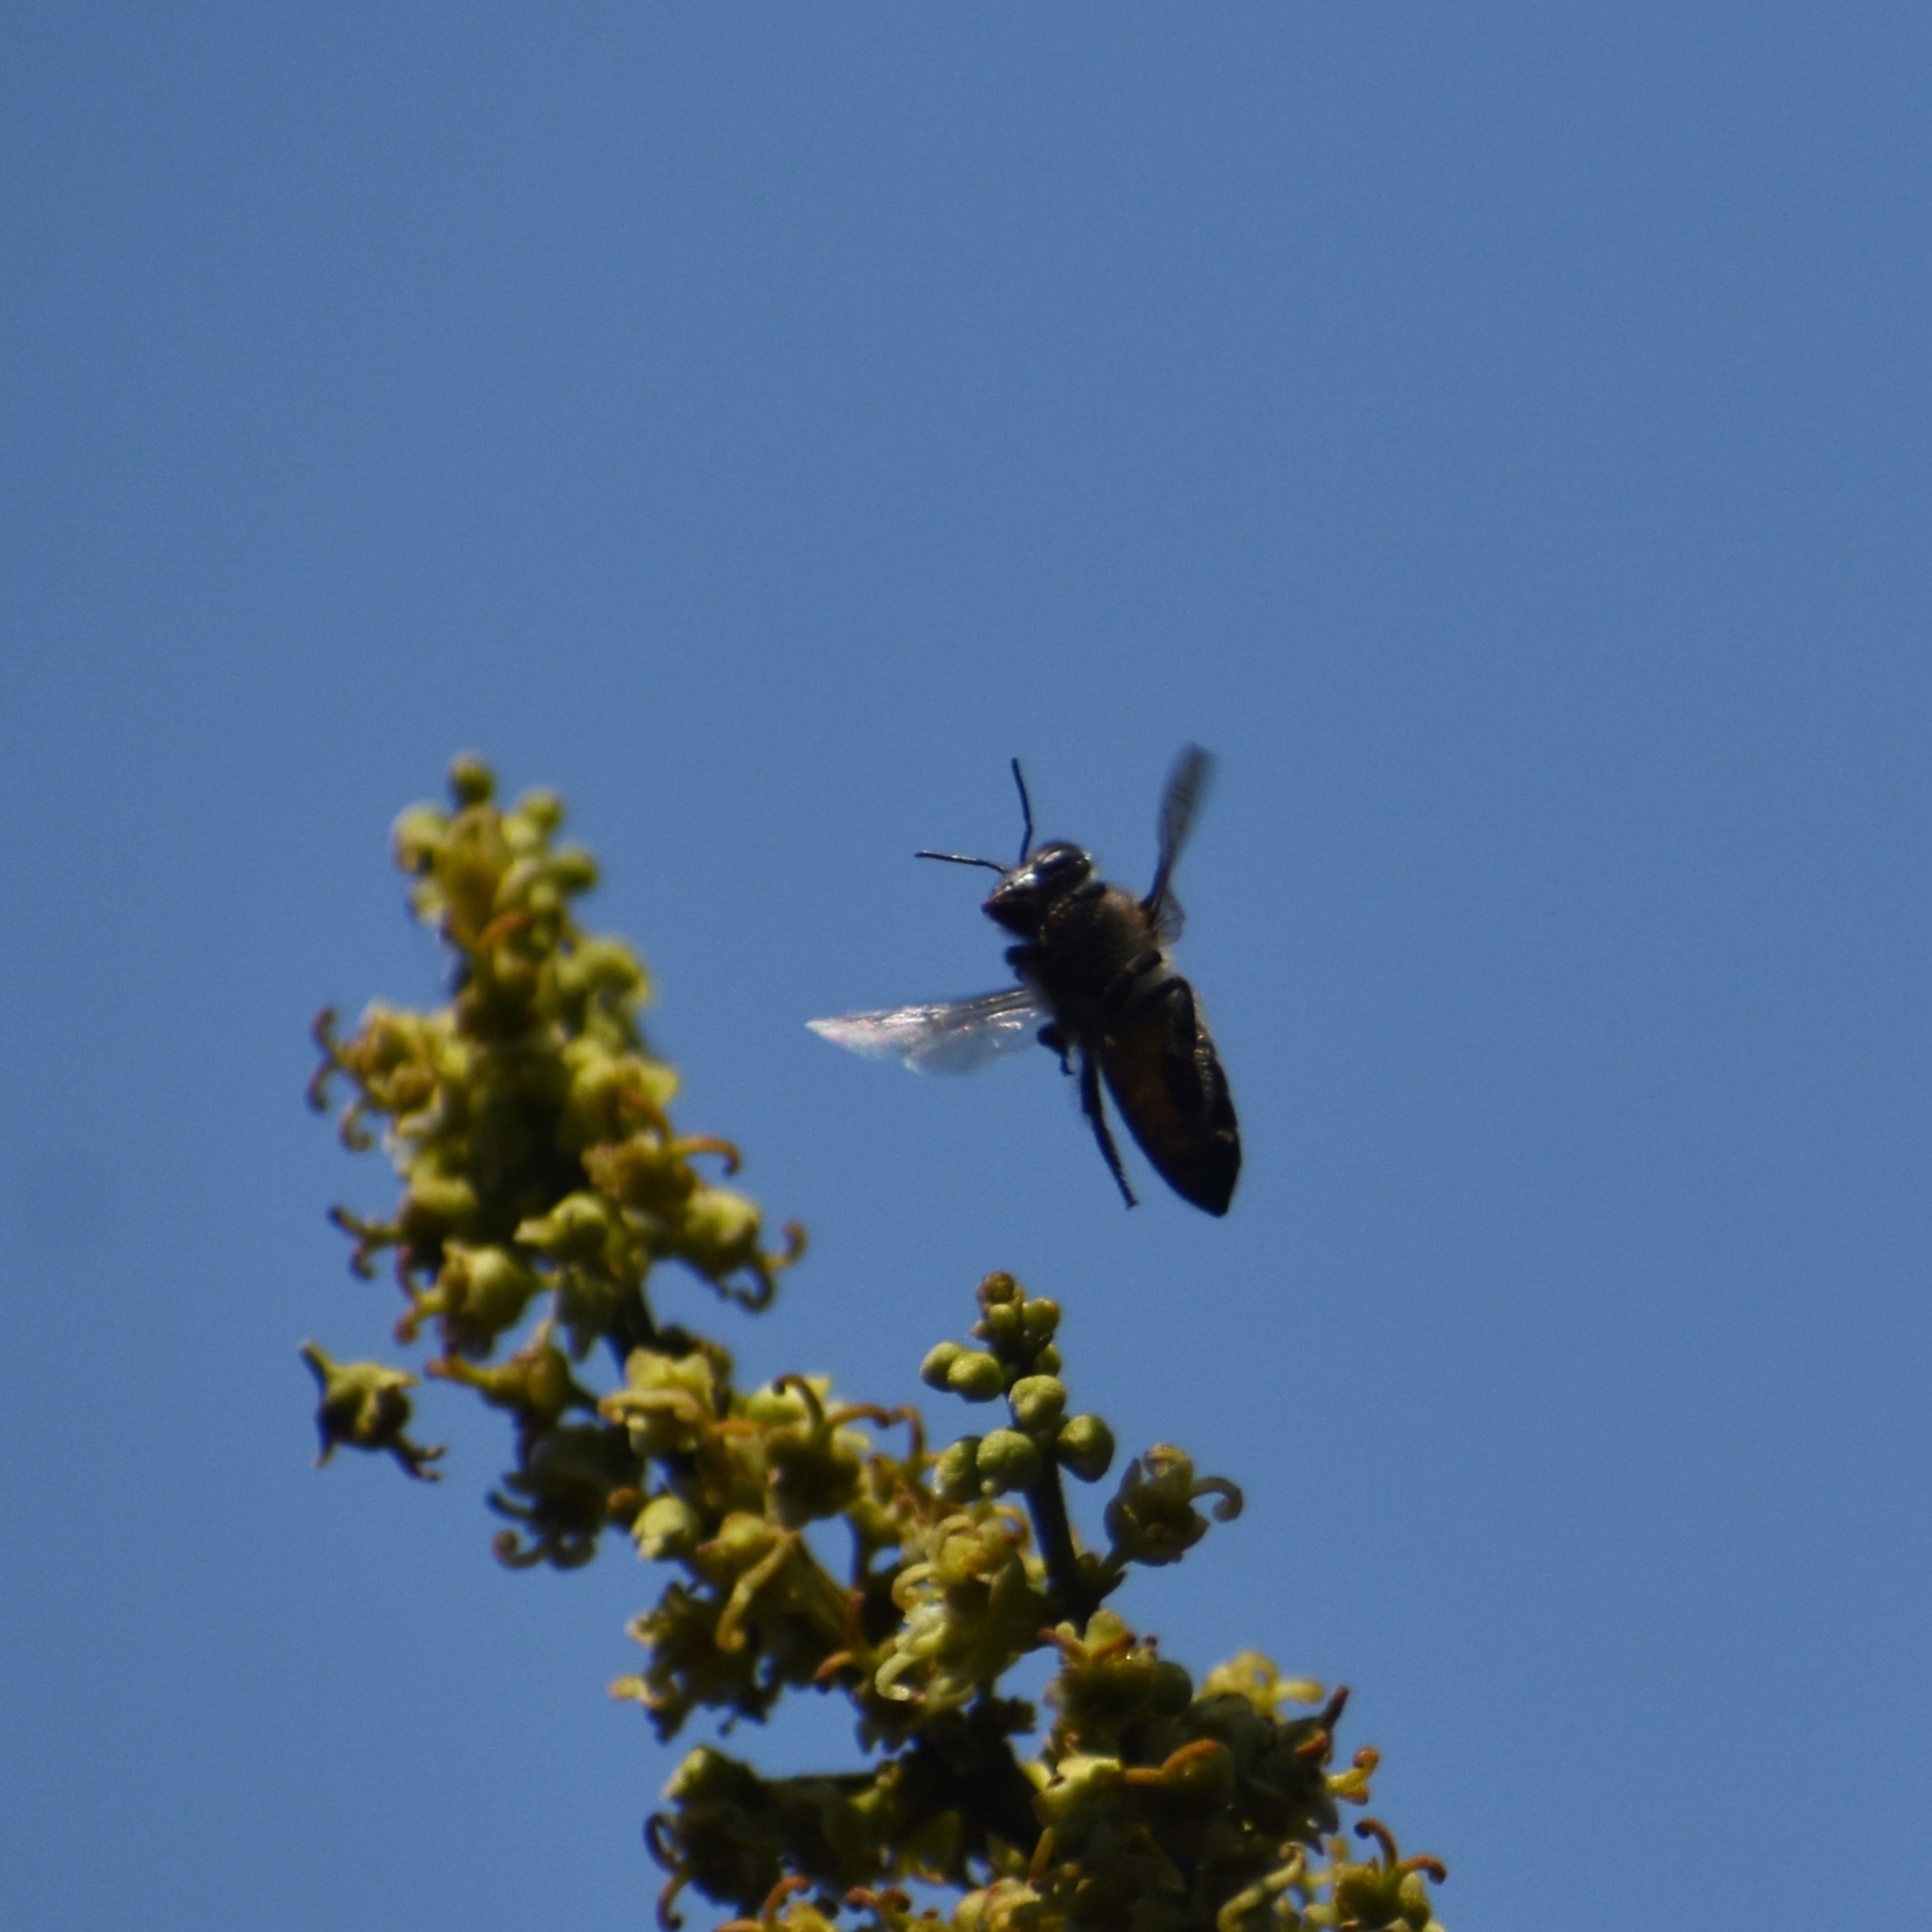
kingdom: Animalia
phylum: Arthropoda
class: Insecta
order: Hymenoptera
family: Apidae
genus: Apis
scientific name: Apis dorsata
